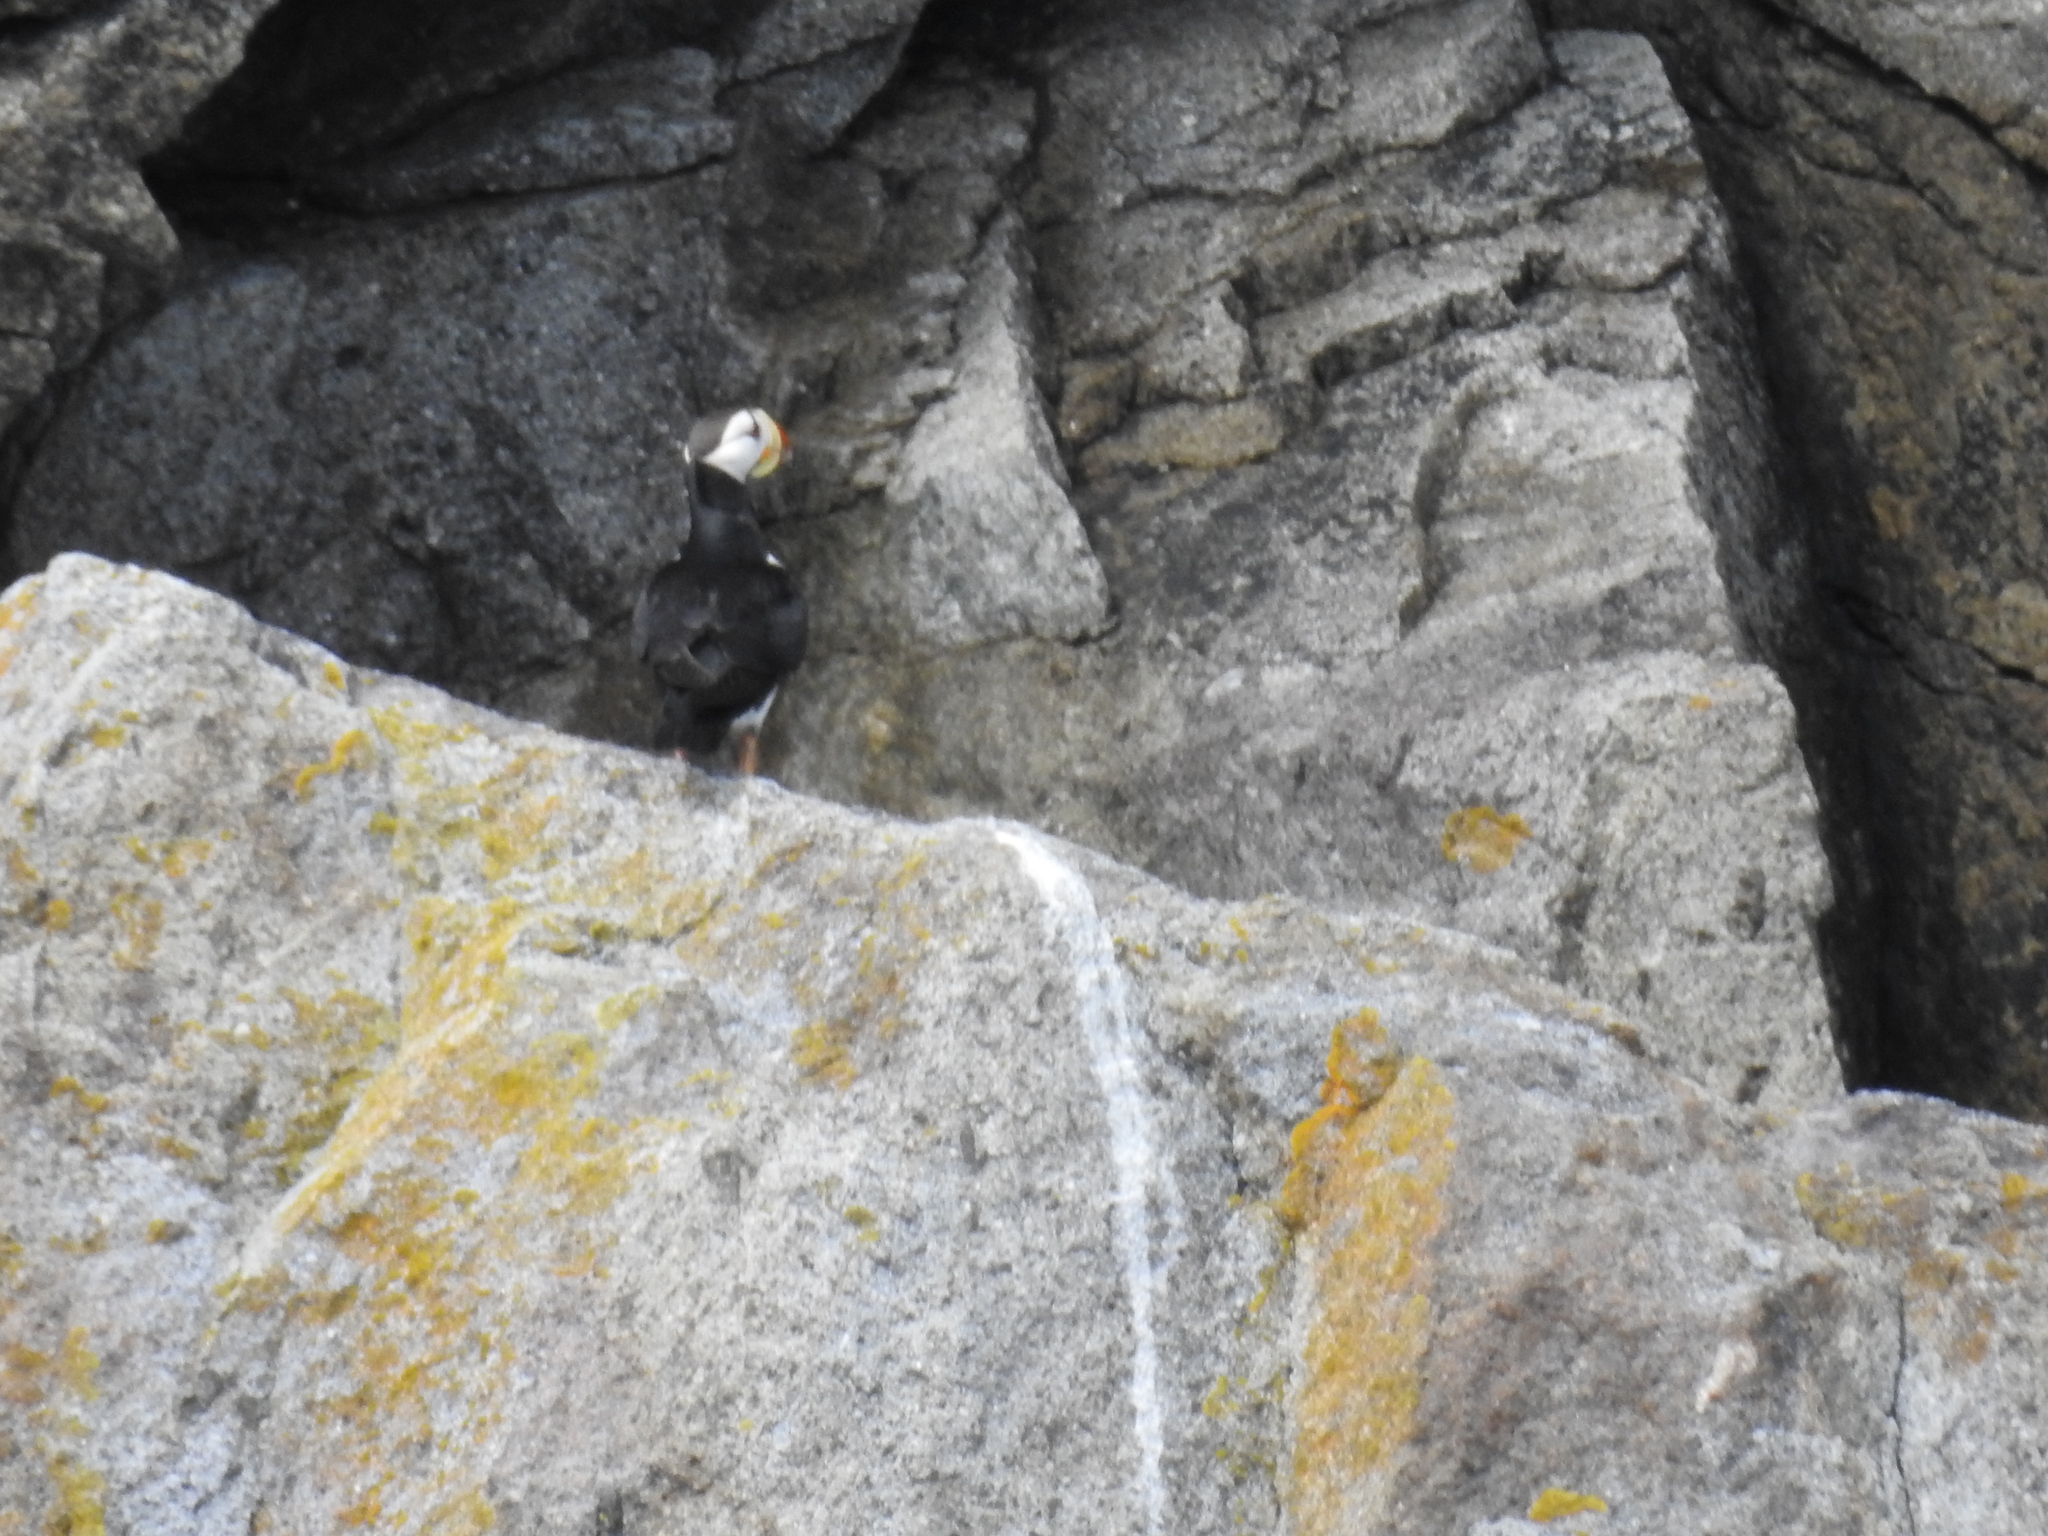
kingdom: Animalia
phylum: Chordata
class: Aves
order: Charadriiformes
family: Alcidae
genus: Fratercula
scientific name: Fratercula corniculata
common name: Horned puffin
